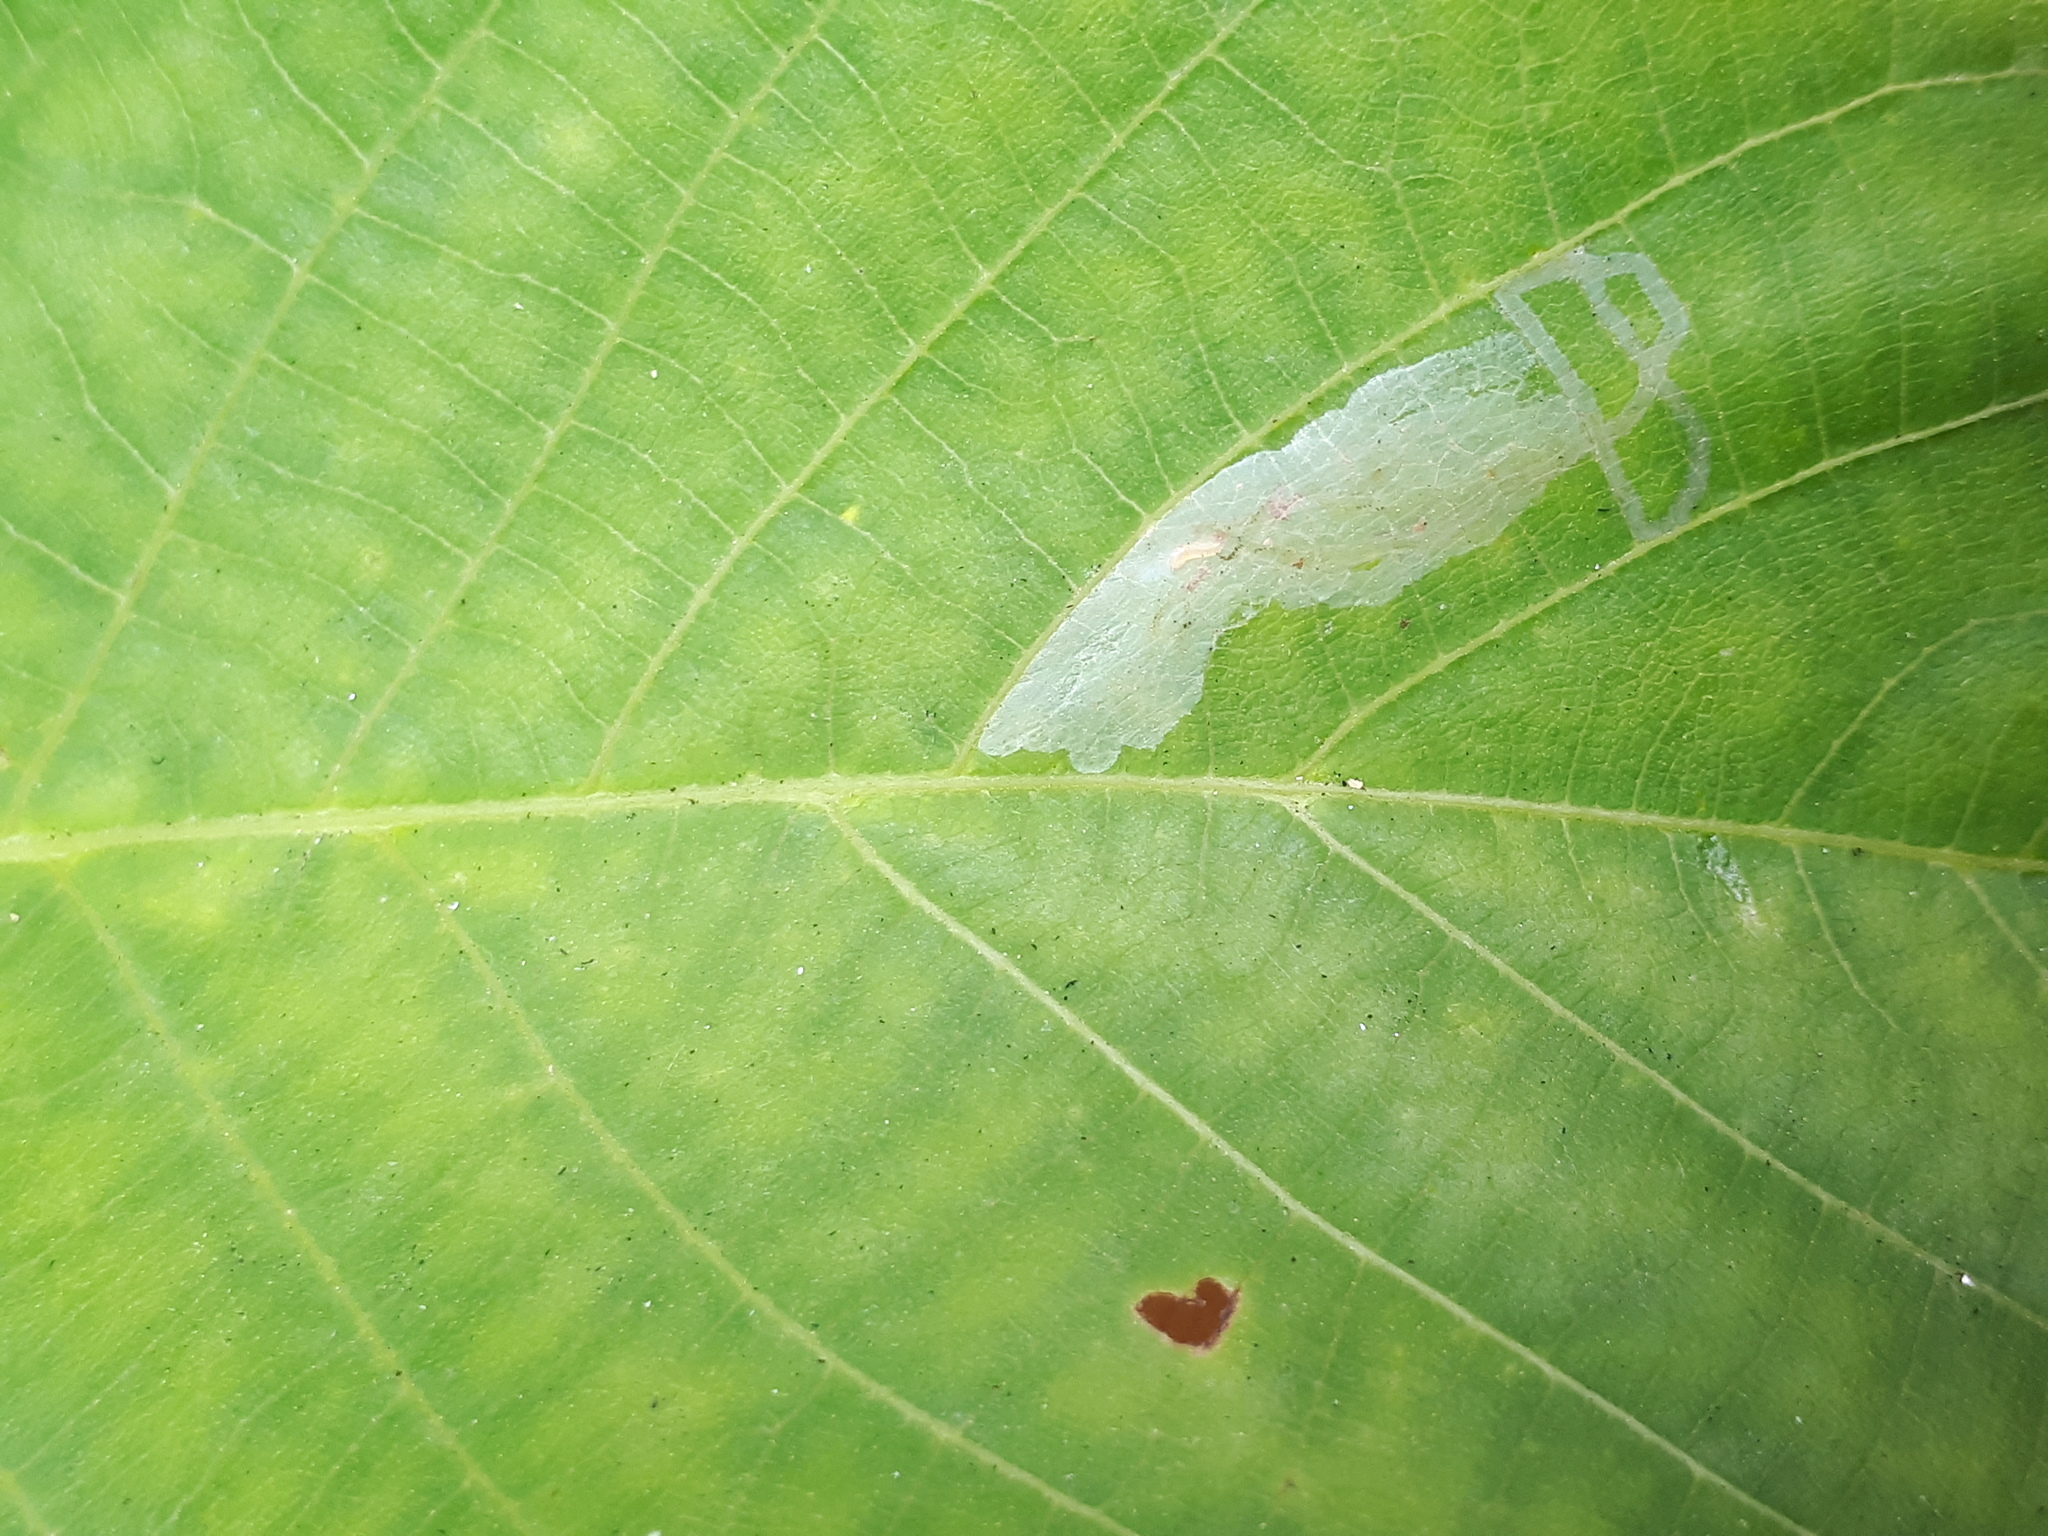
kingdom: Animalia
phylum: Arthropoda
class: Insecta
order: Lepidoptera
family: Gracillariidae
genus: Caloptilia
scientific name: Caloptilia roscipennella
